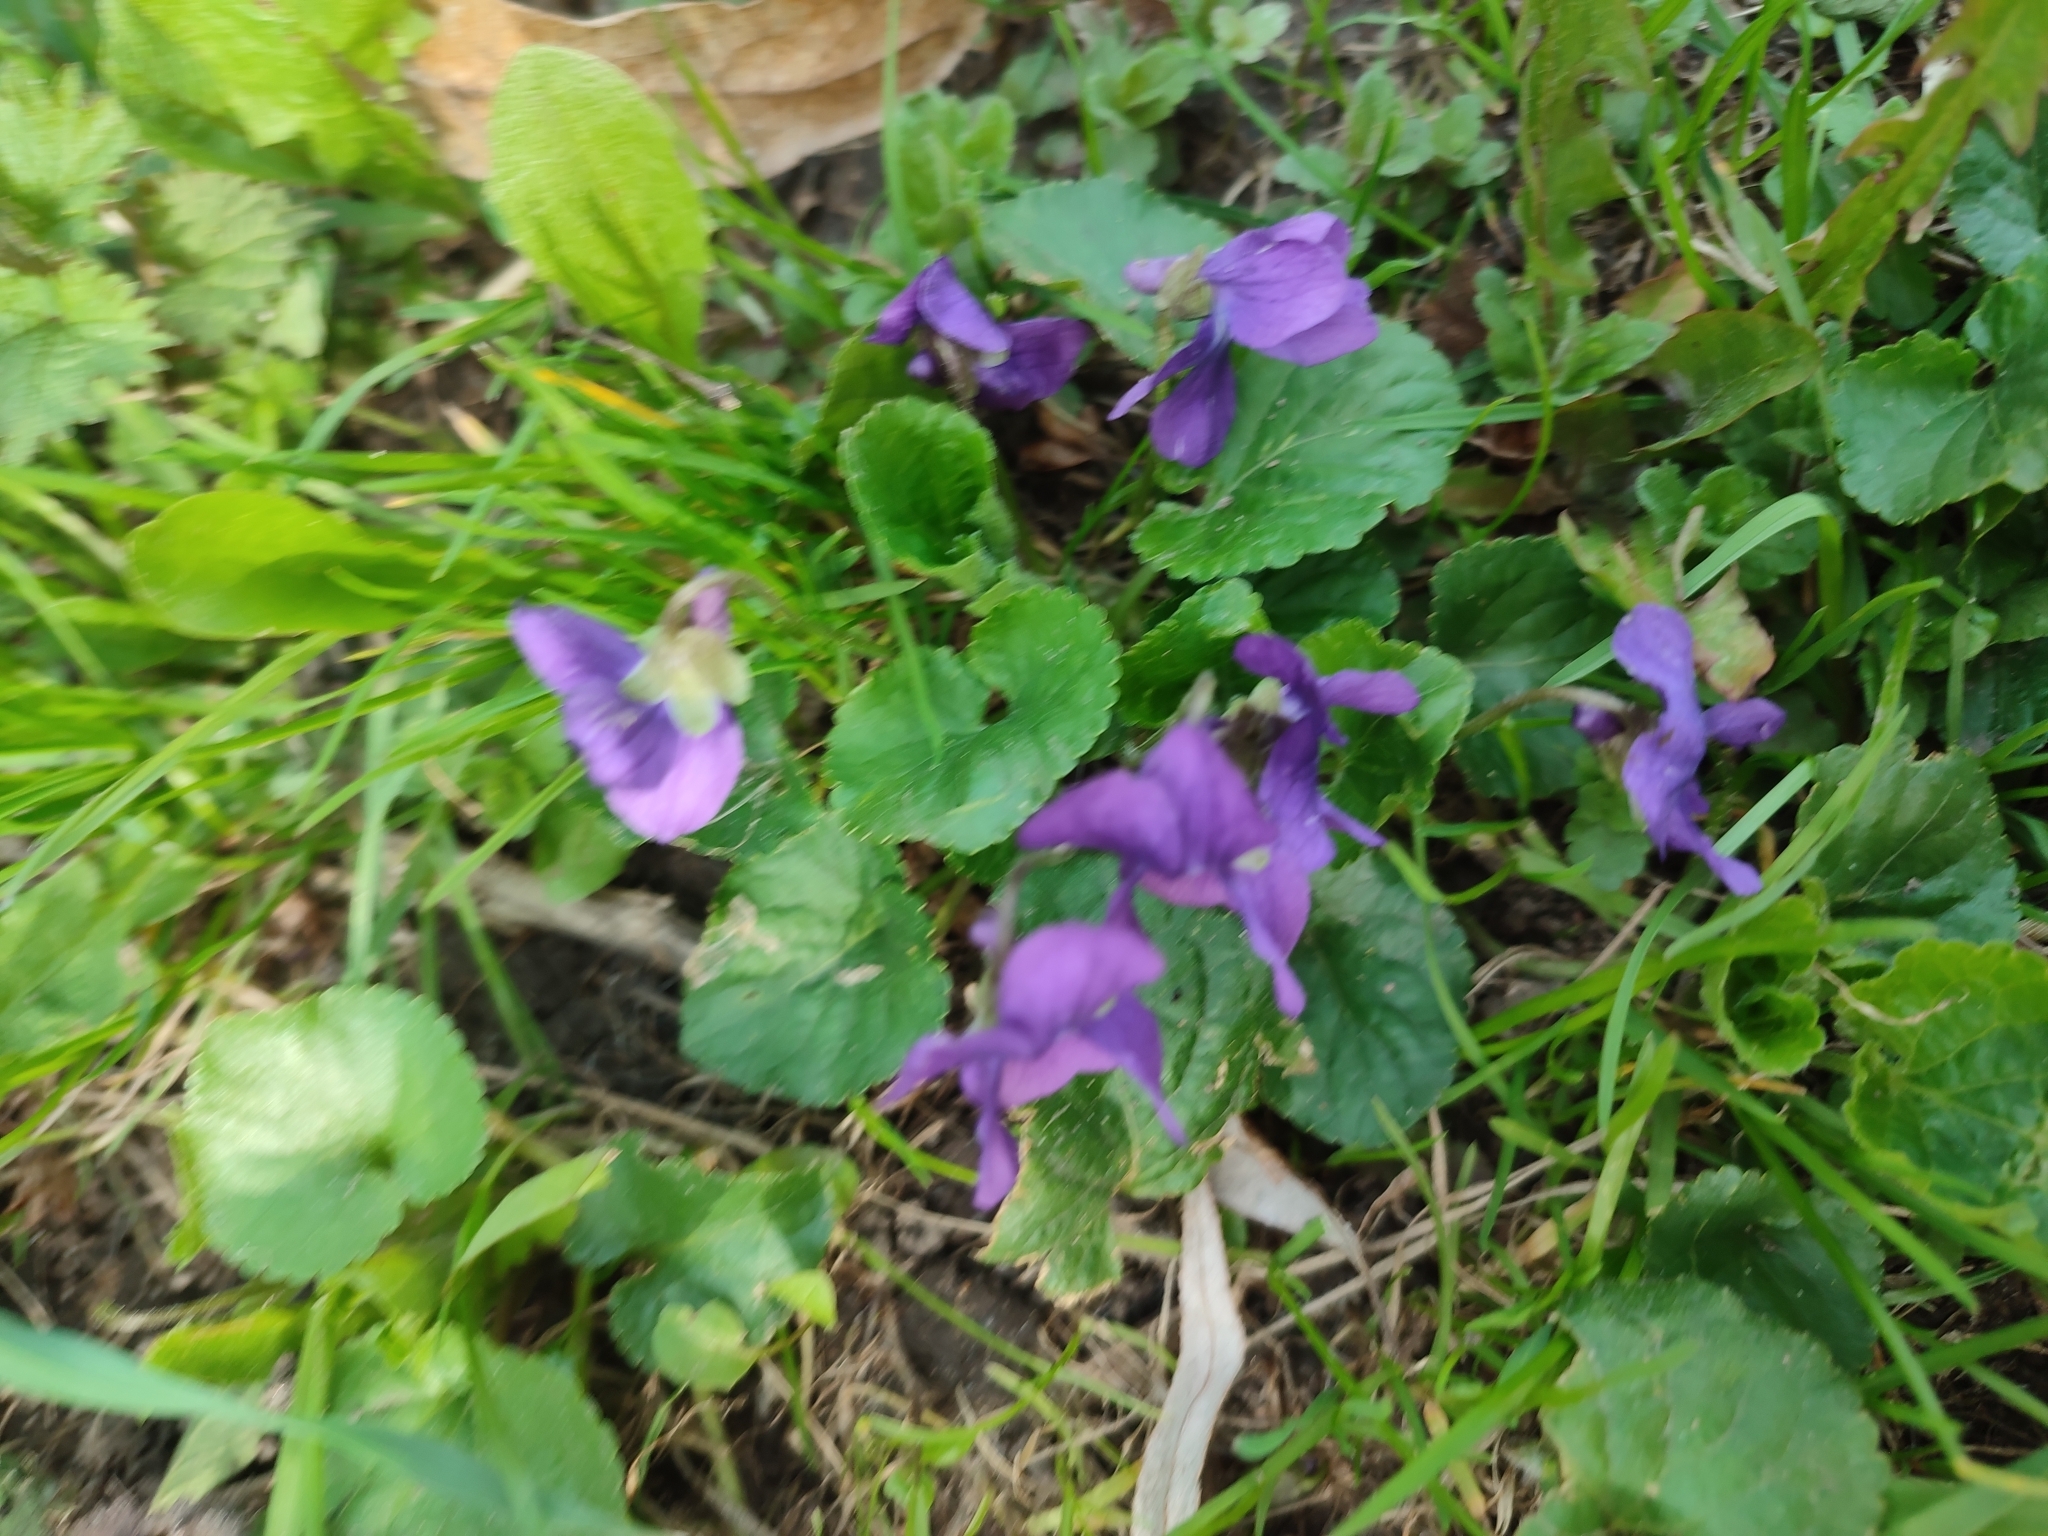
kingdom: Plantae
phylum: Tracheophyta
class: Magnoliopsida
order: Malpighiales
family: Violaceae
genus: Viola
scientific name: Viola odorata
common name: Sweet violet
